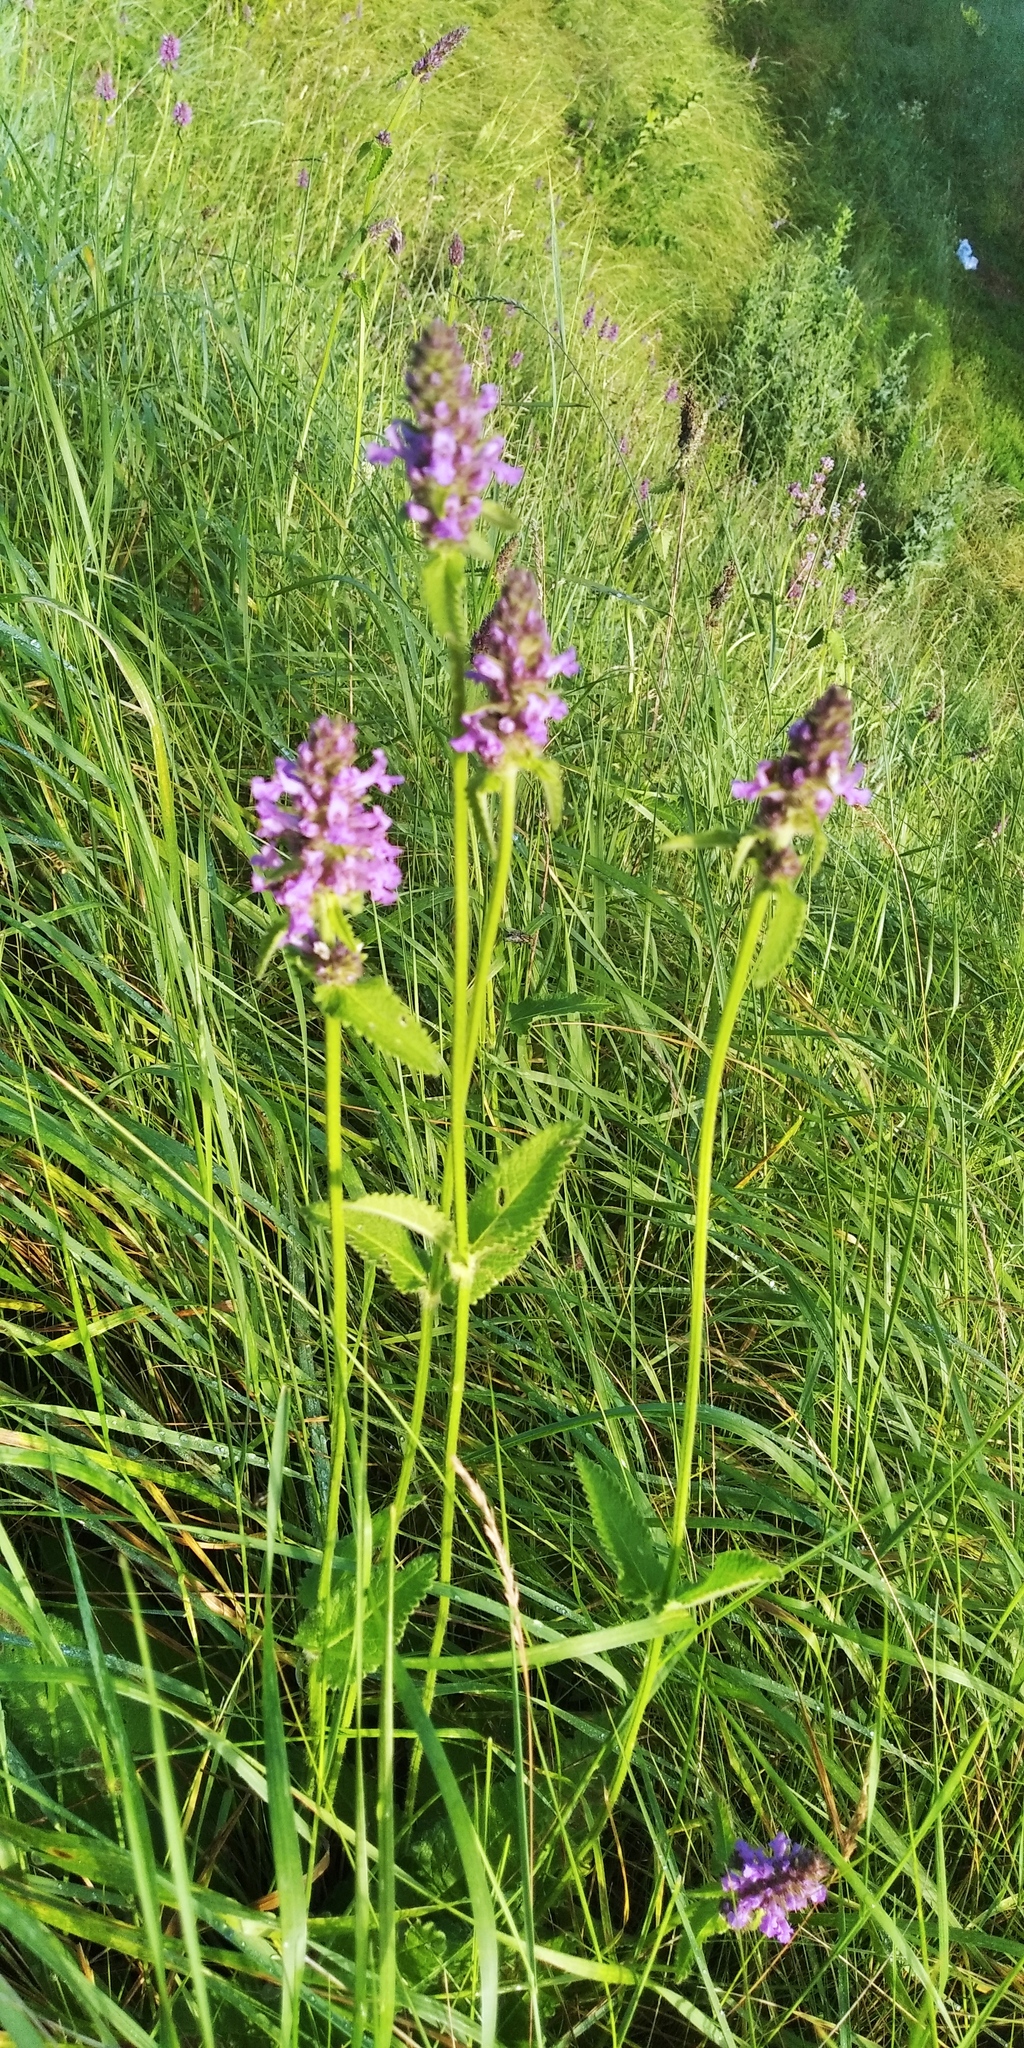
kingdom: Plantae
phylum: Tracheophyta
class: Magnoliopsida
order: Lamiales
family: Lamiaceae
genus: Betonica
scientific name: Betonica officinalis
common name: Bishop's-wort
